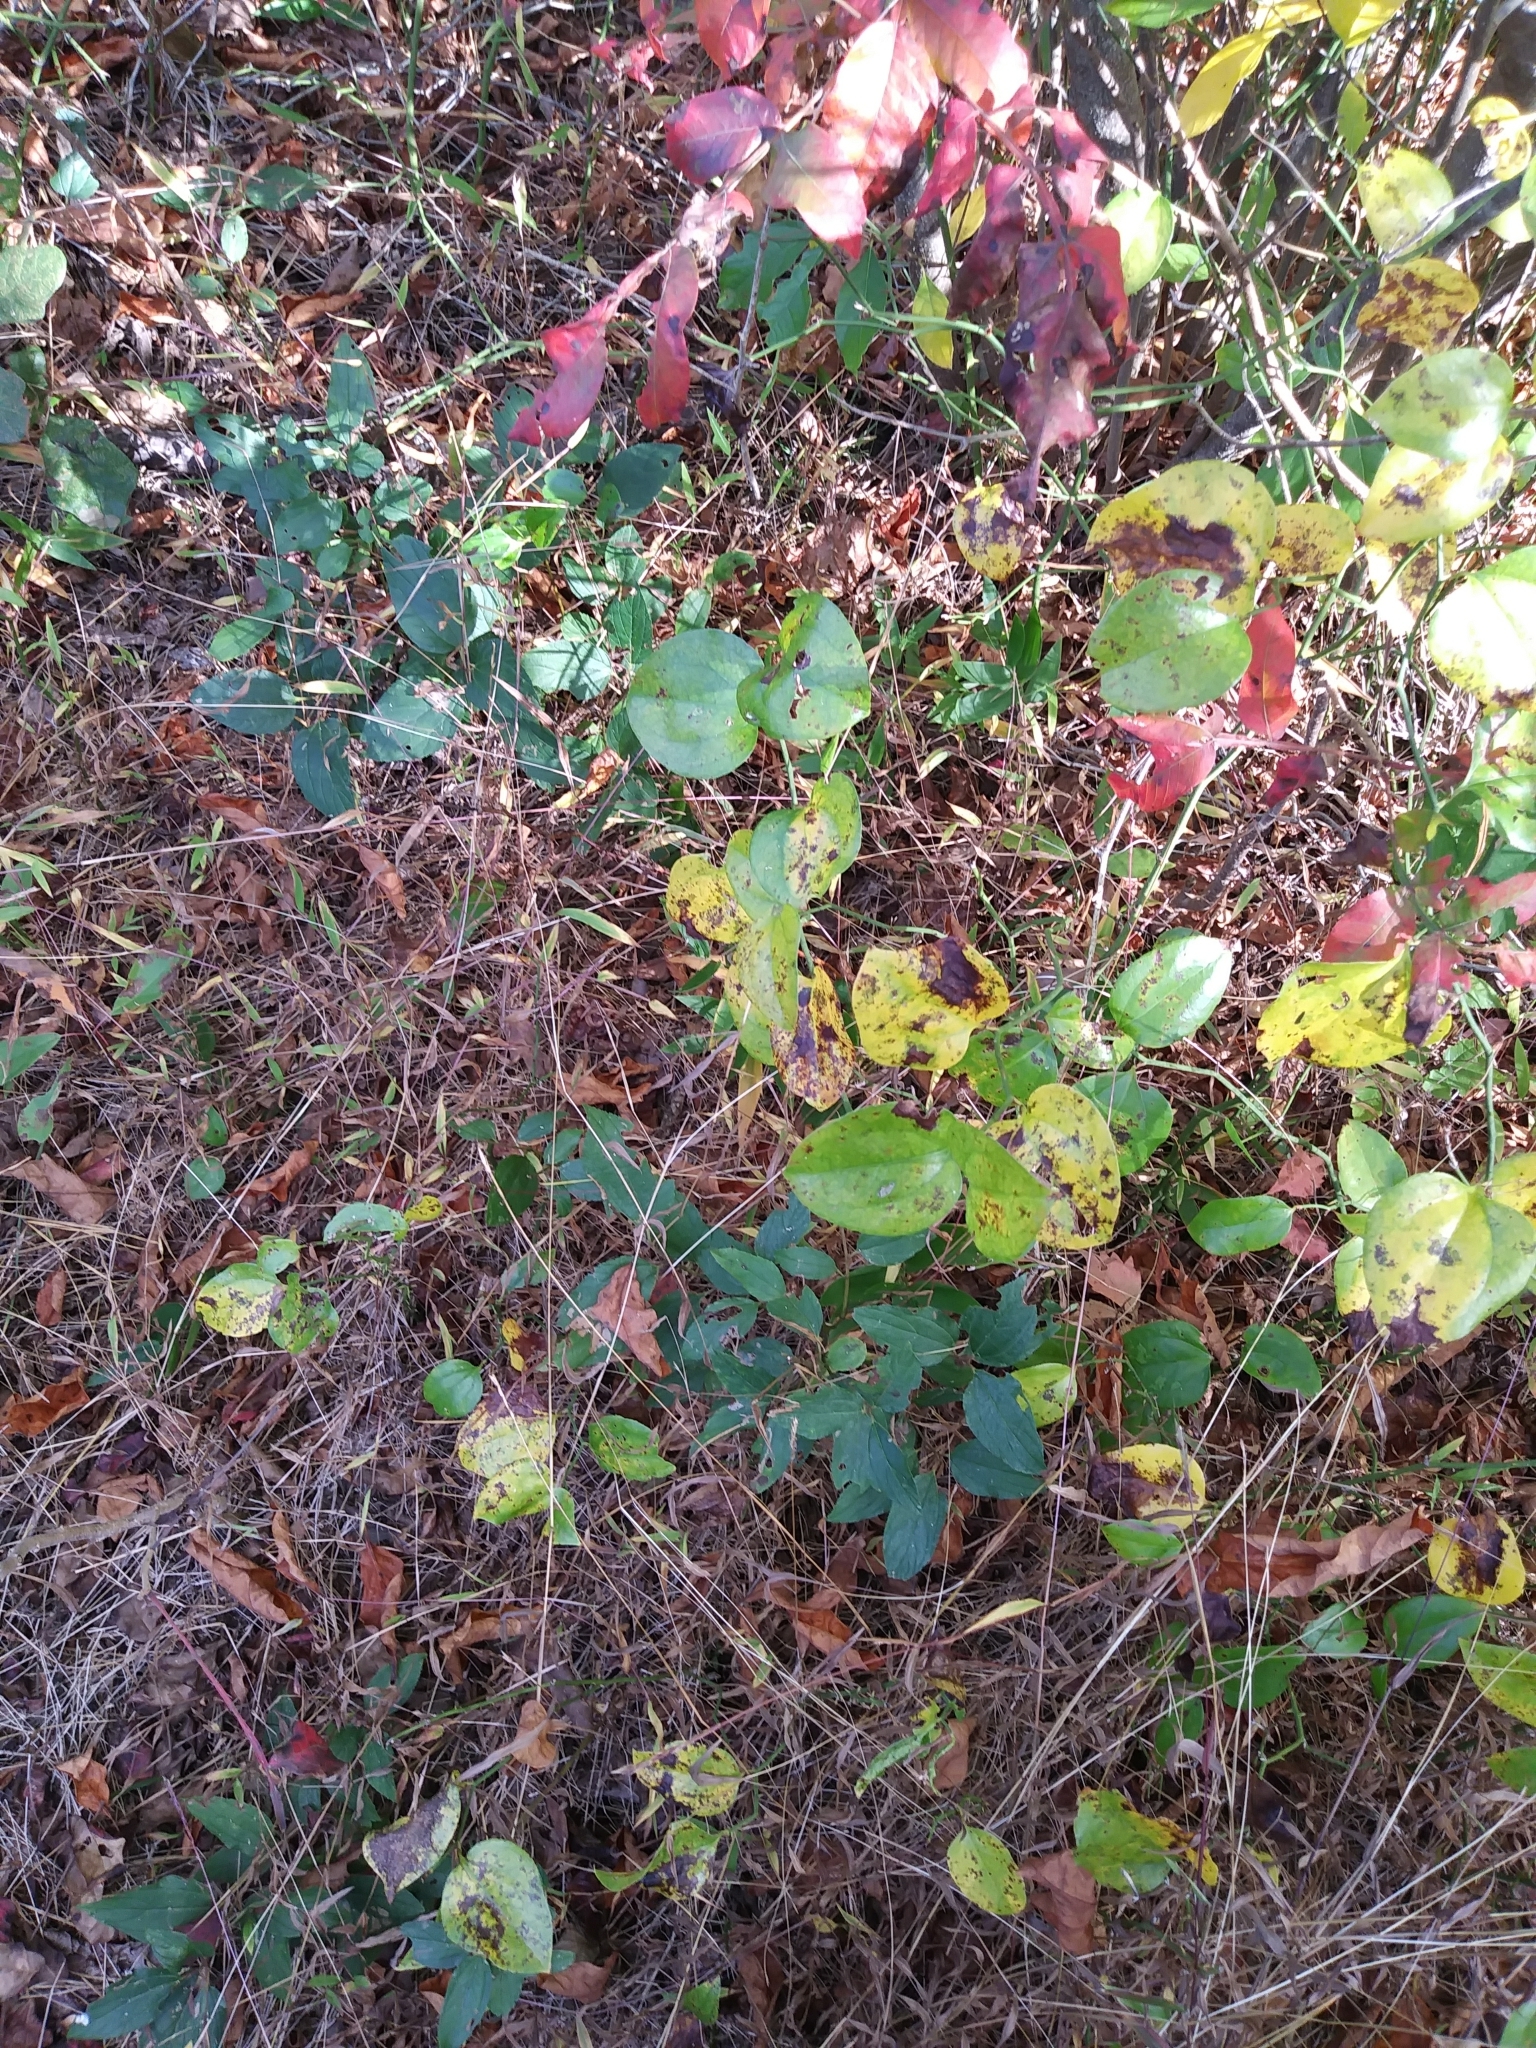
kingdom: Plantae
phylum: Tracheophyta
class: Magnoliopsida
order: Rosales
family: Rhamnaceae
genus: Ceanothus
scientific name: Ceanothus americanus
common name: Redroot
